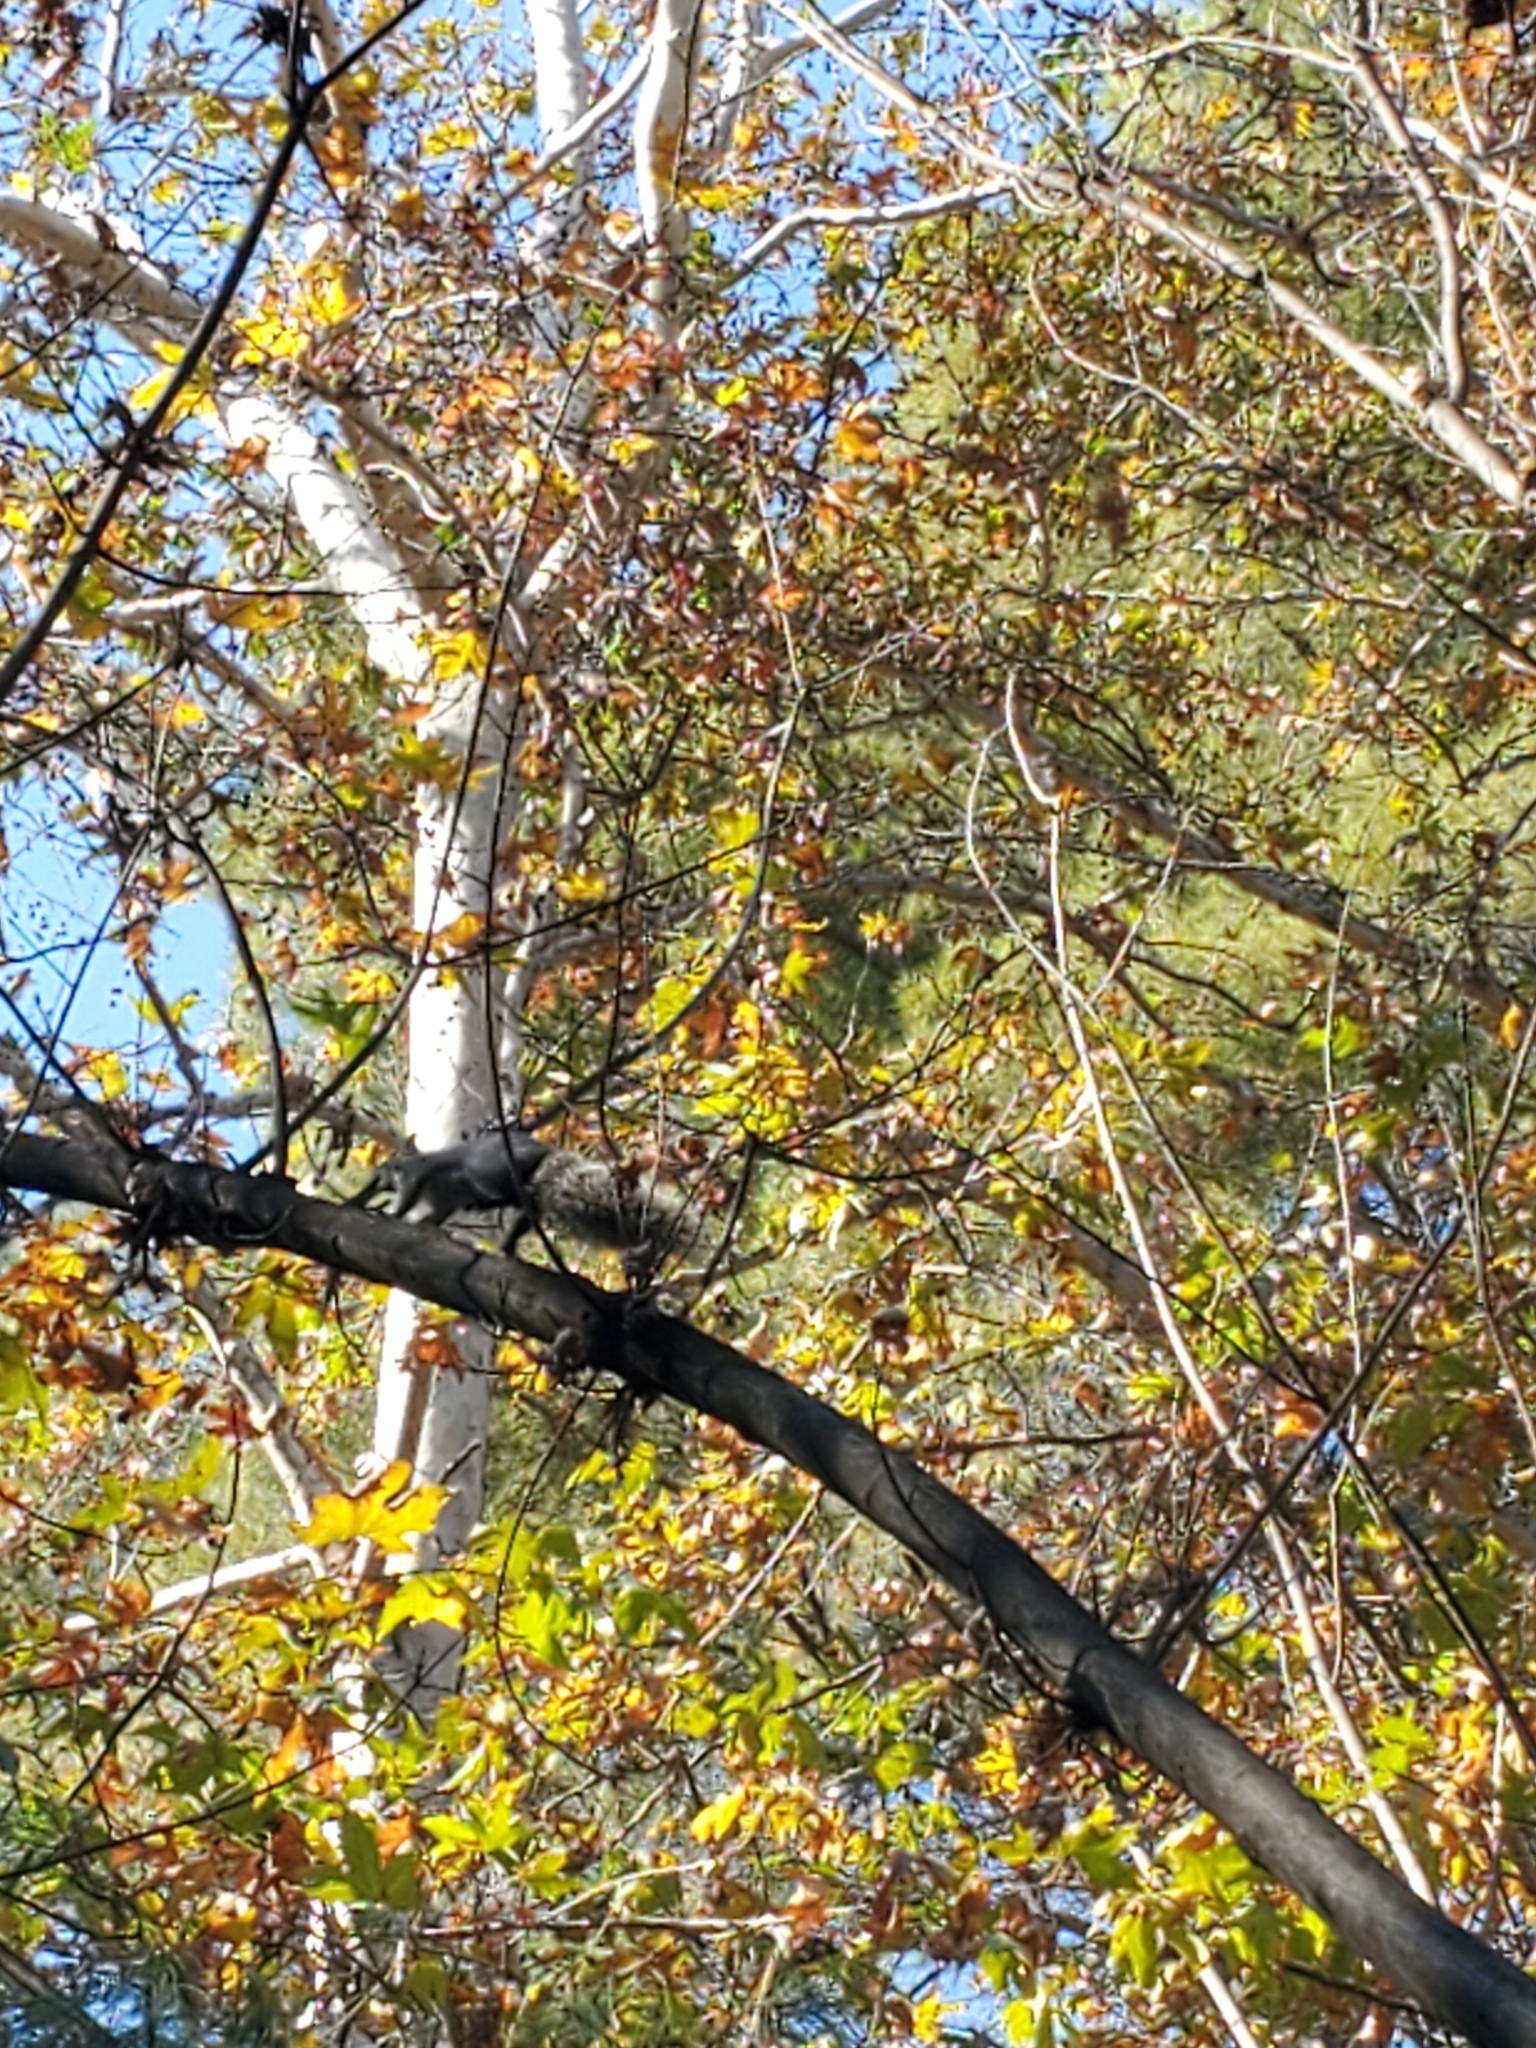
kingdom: Animalia
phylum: Chordata
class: Mammalia
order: Rodentia
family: Sciuridae
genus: Sciurus
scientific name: Sciurus griseus
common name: Western gray squirrel
